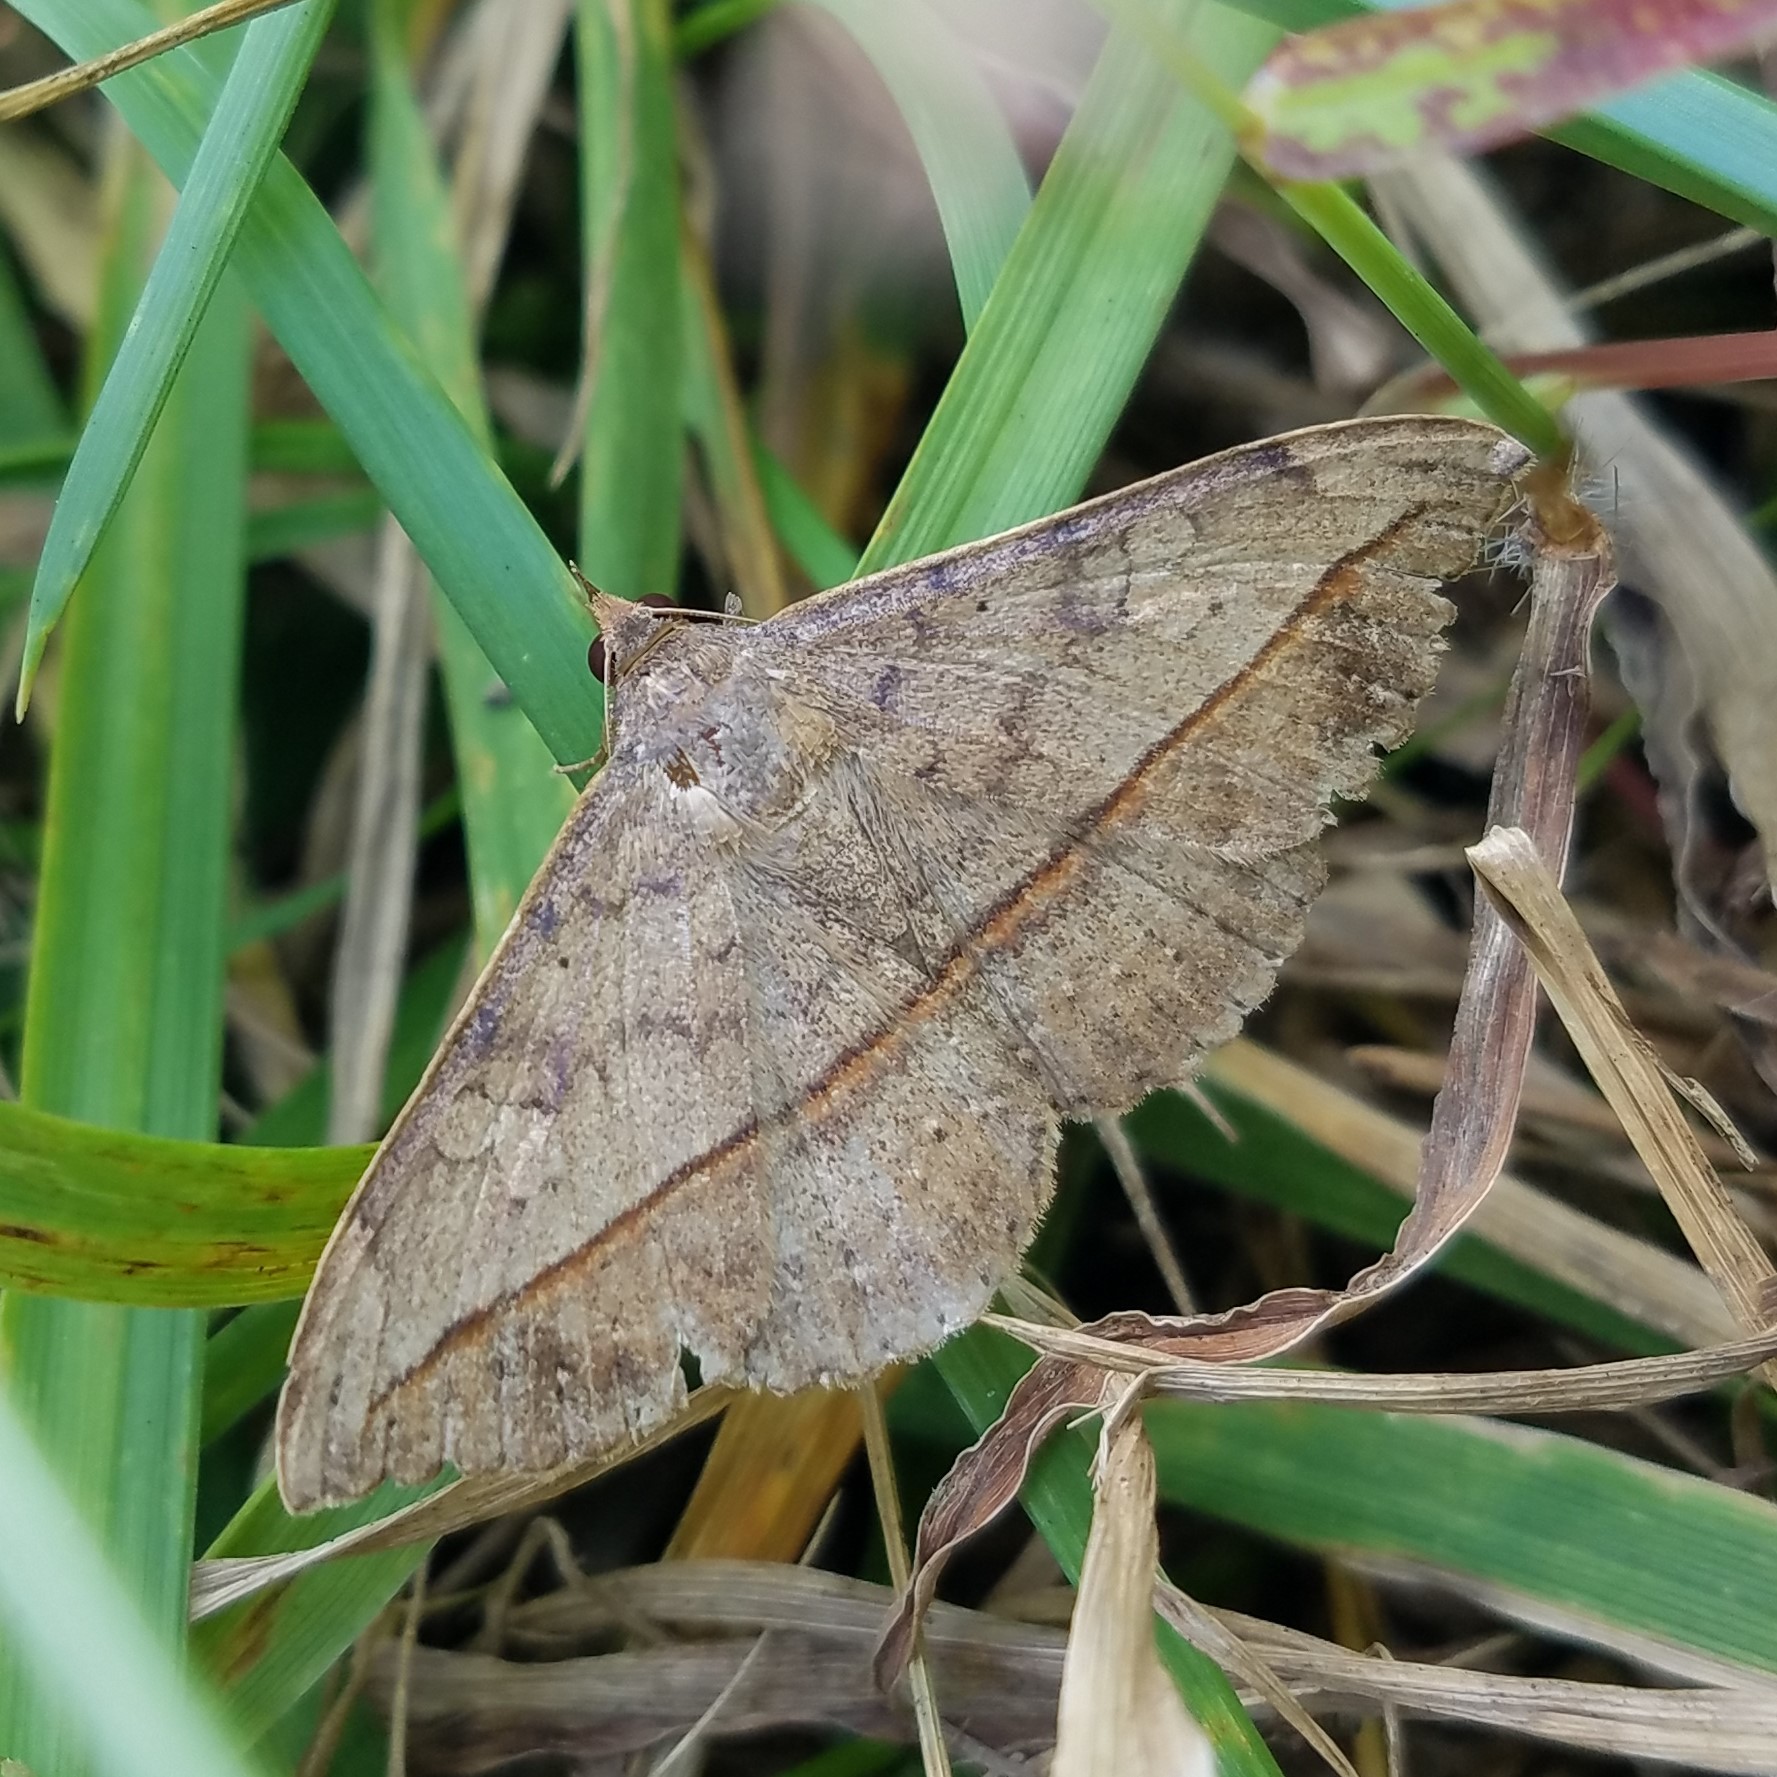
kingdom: Animalia
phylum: Arthropoda
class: Insecta
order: Lepidoptera
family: Erebidae
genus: Anticarsia
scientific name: Anticarsia gemmatalis
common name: Cutworm moth
